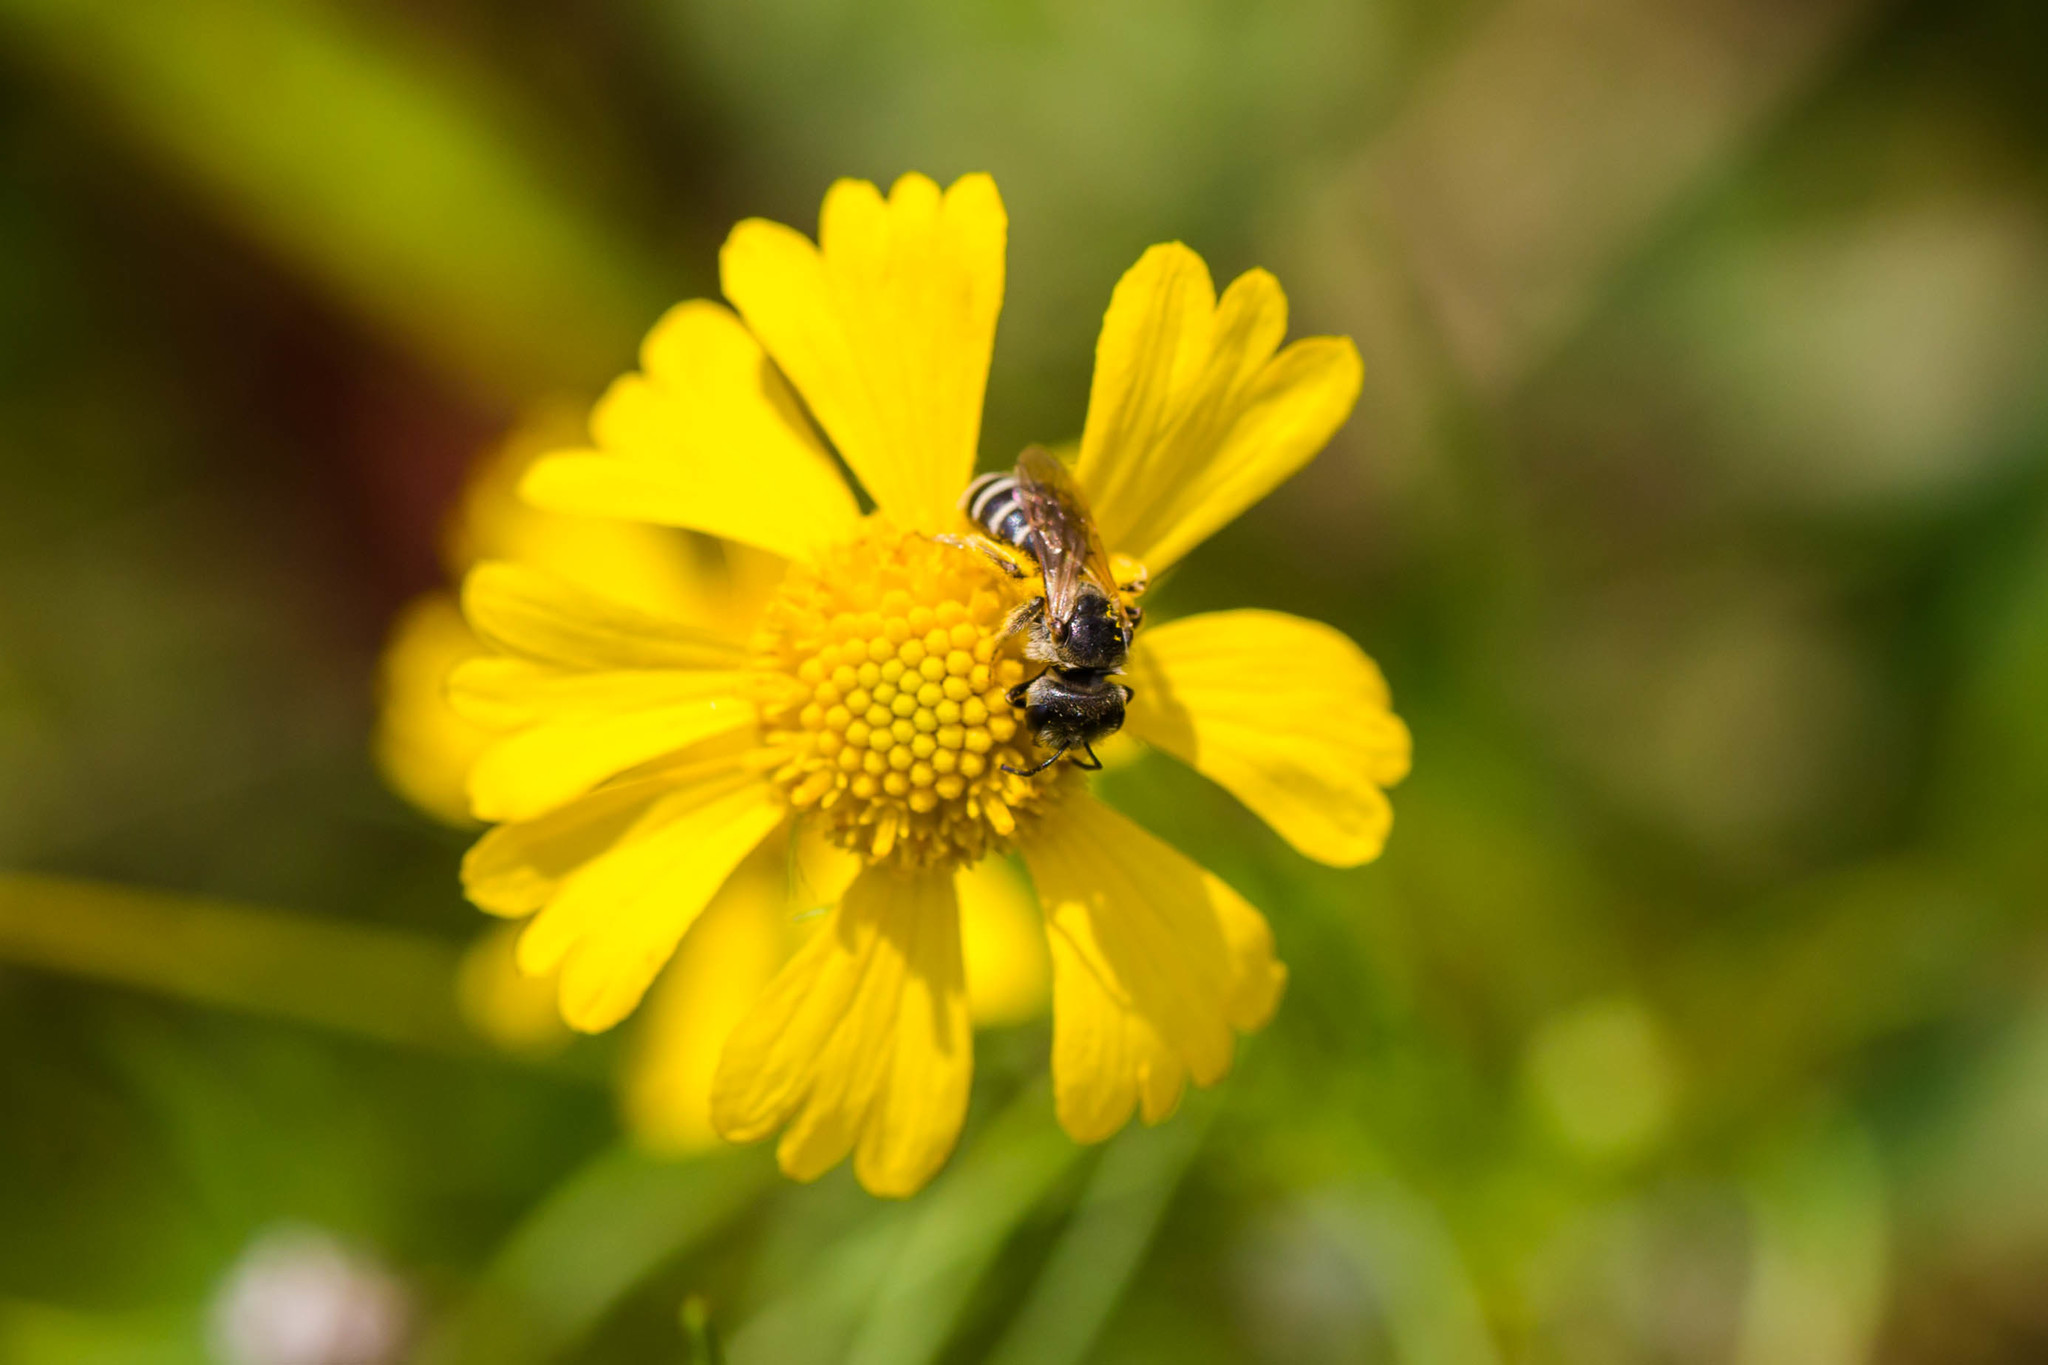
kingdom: Animalia
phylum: Arthropoda
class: Insecta
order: Hymenoptera
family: Halictidae
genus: Halictus
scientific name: Halictus ligatus
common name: Ligated furrow bee
